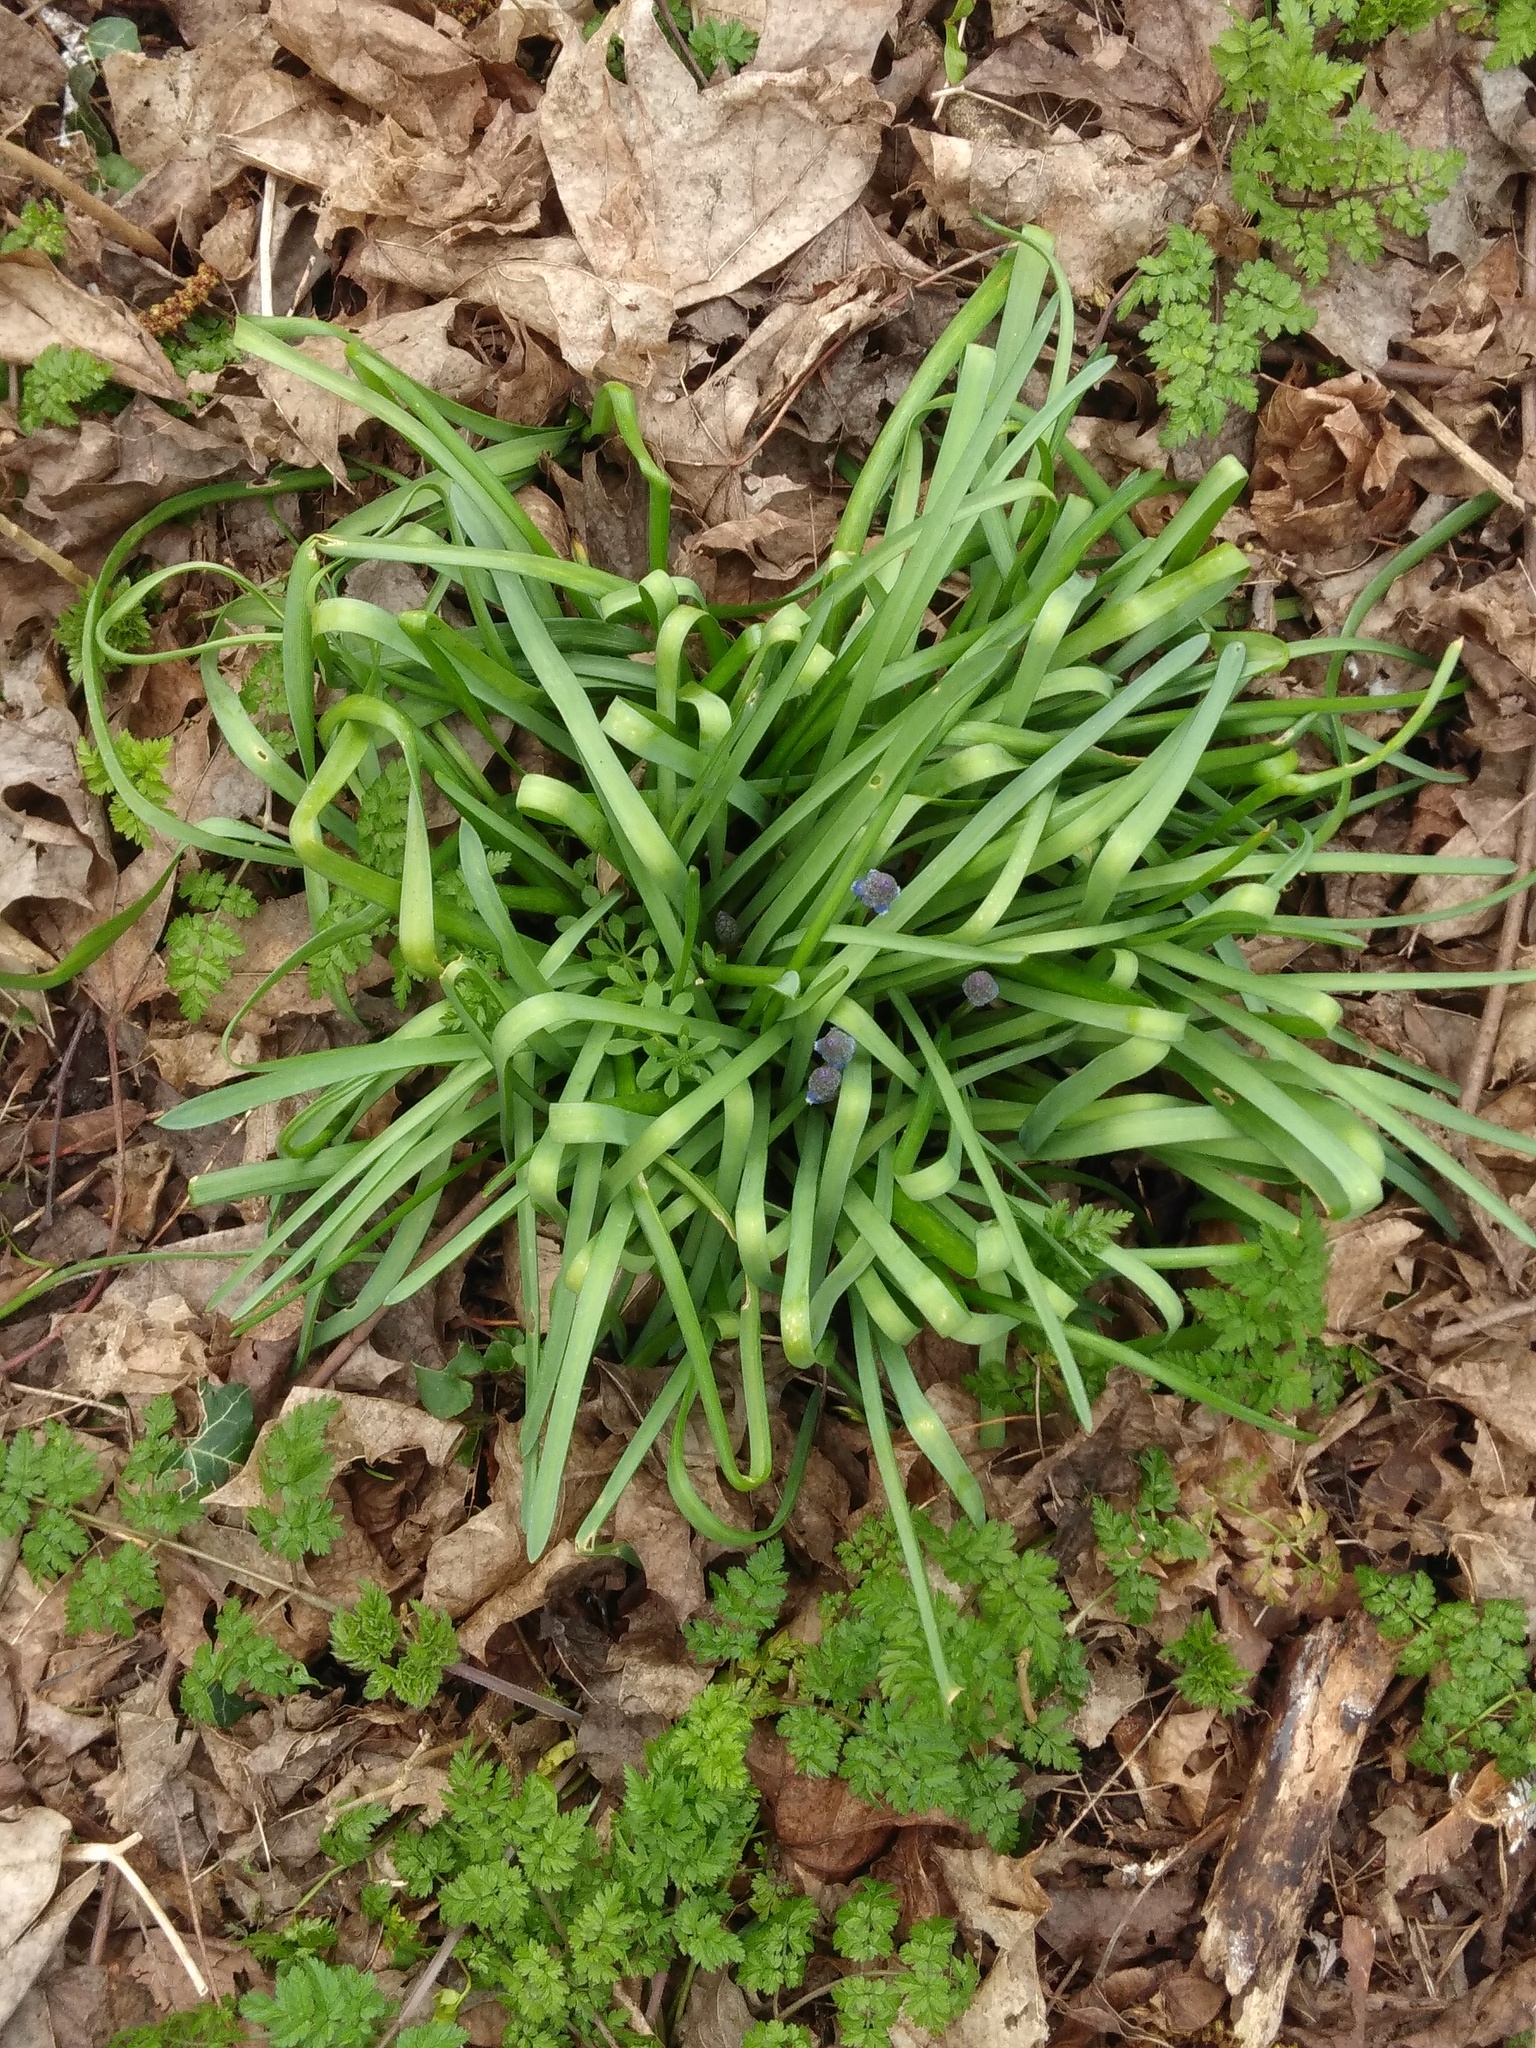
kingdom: Plantae
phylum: Tracheophyta
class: Liliopsida
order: Asparagales
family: Asparagaceae
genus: Muscari
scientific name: Muscari armeniacum
